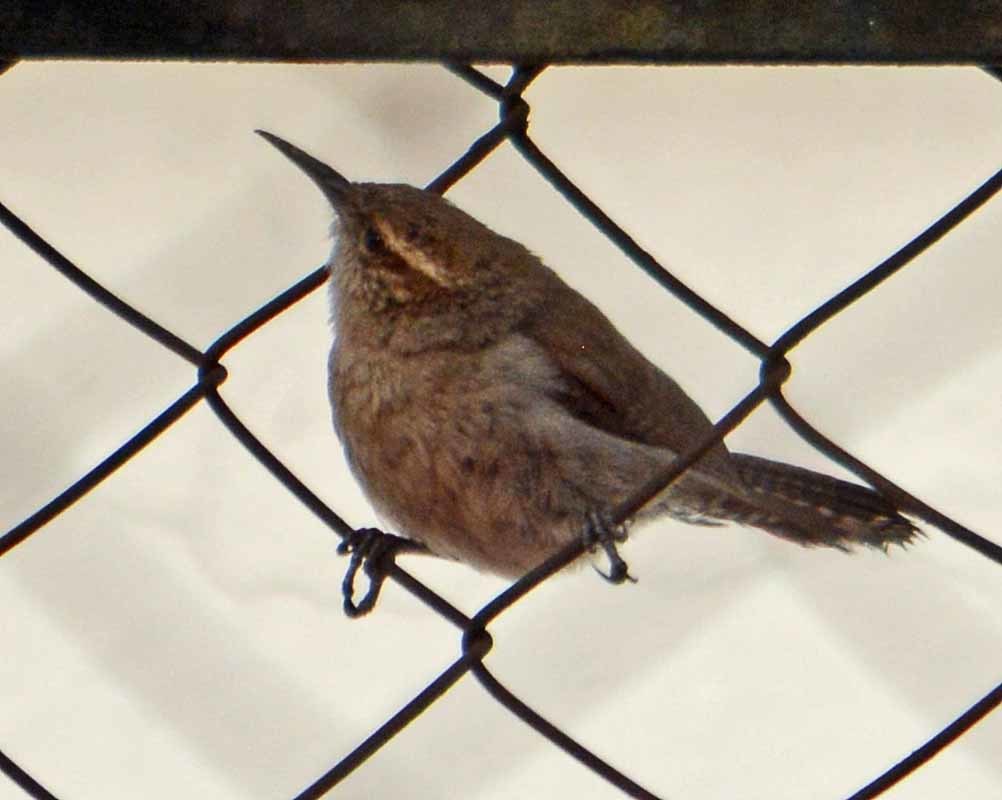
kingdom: Animalia
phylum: Chordata
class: Aves
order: Passeriformes
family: Troglodytidae
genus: Thryomanes
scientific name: Thryomanes bewickii
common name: Bewick's wren
